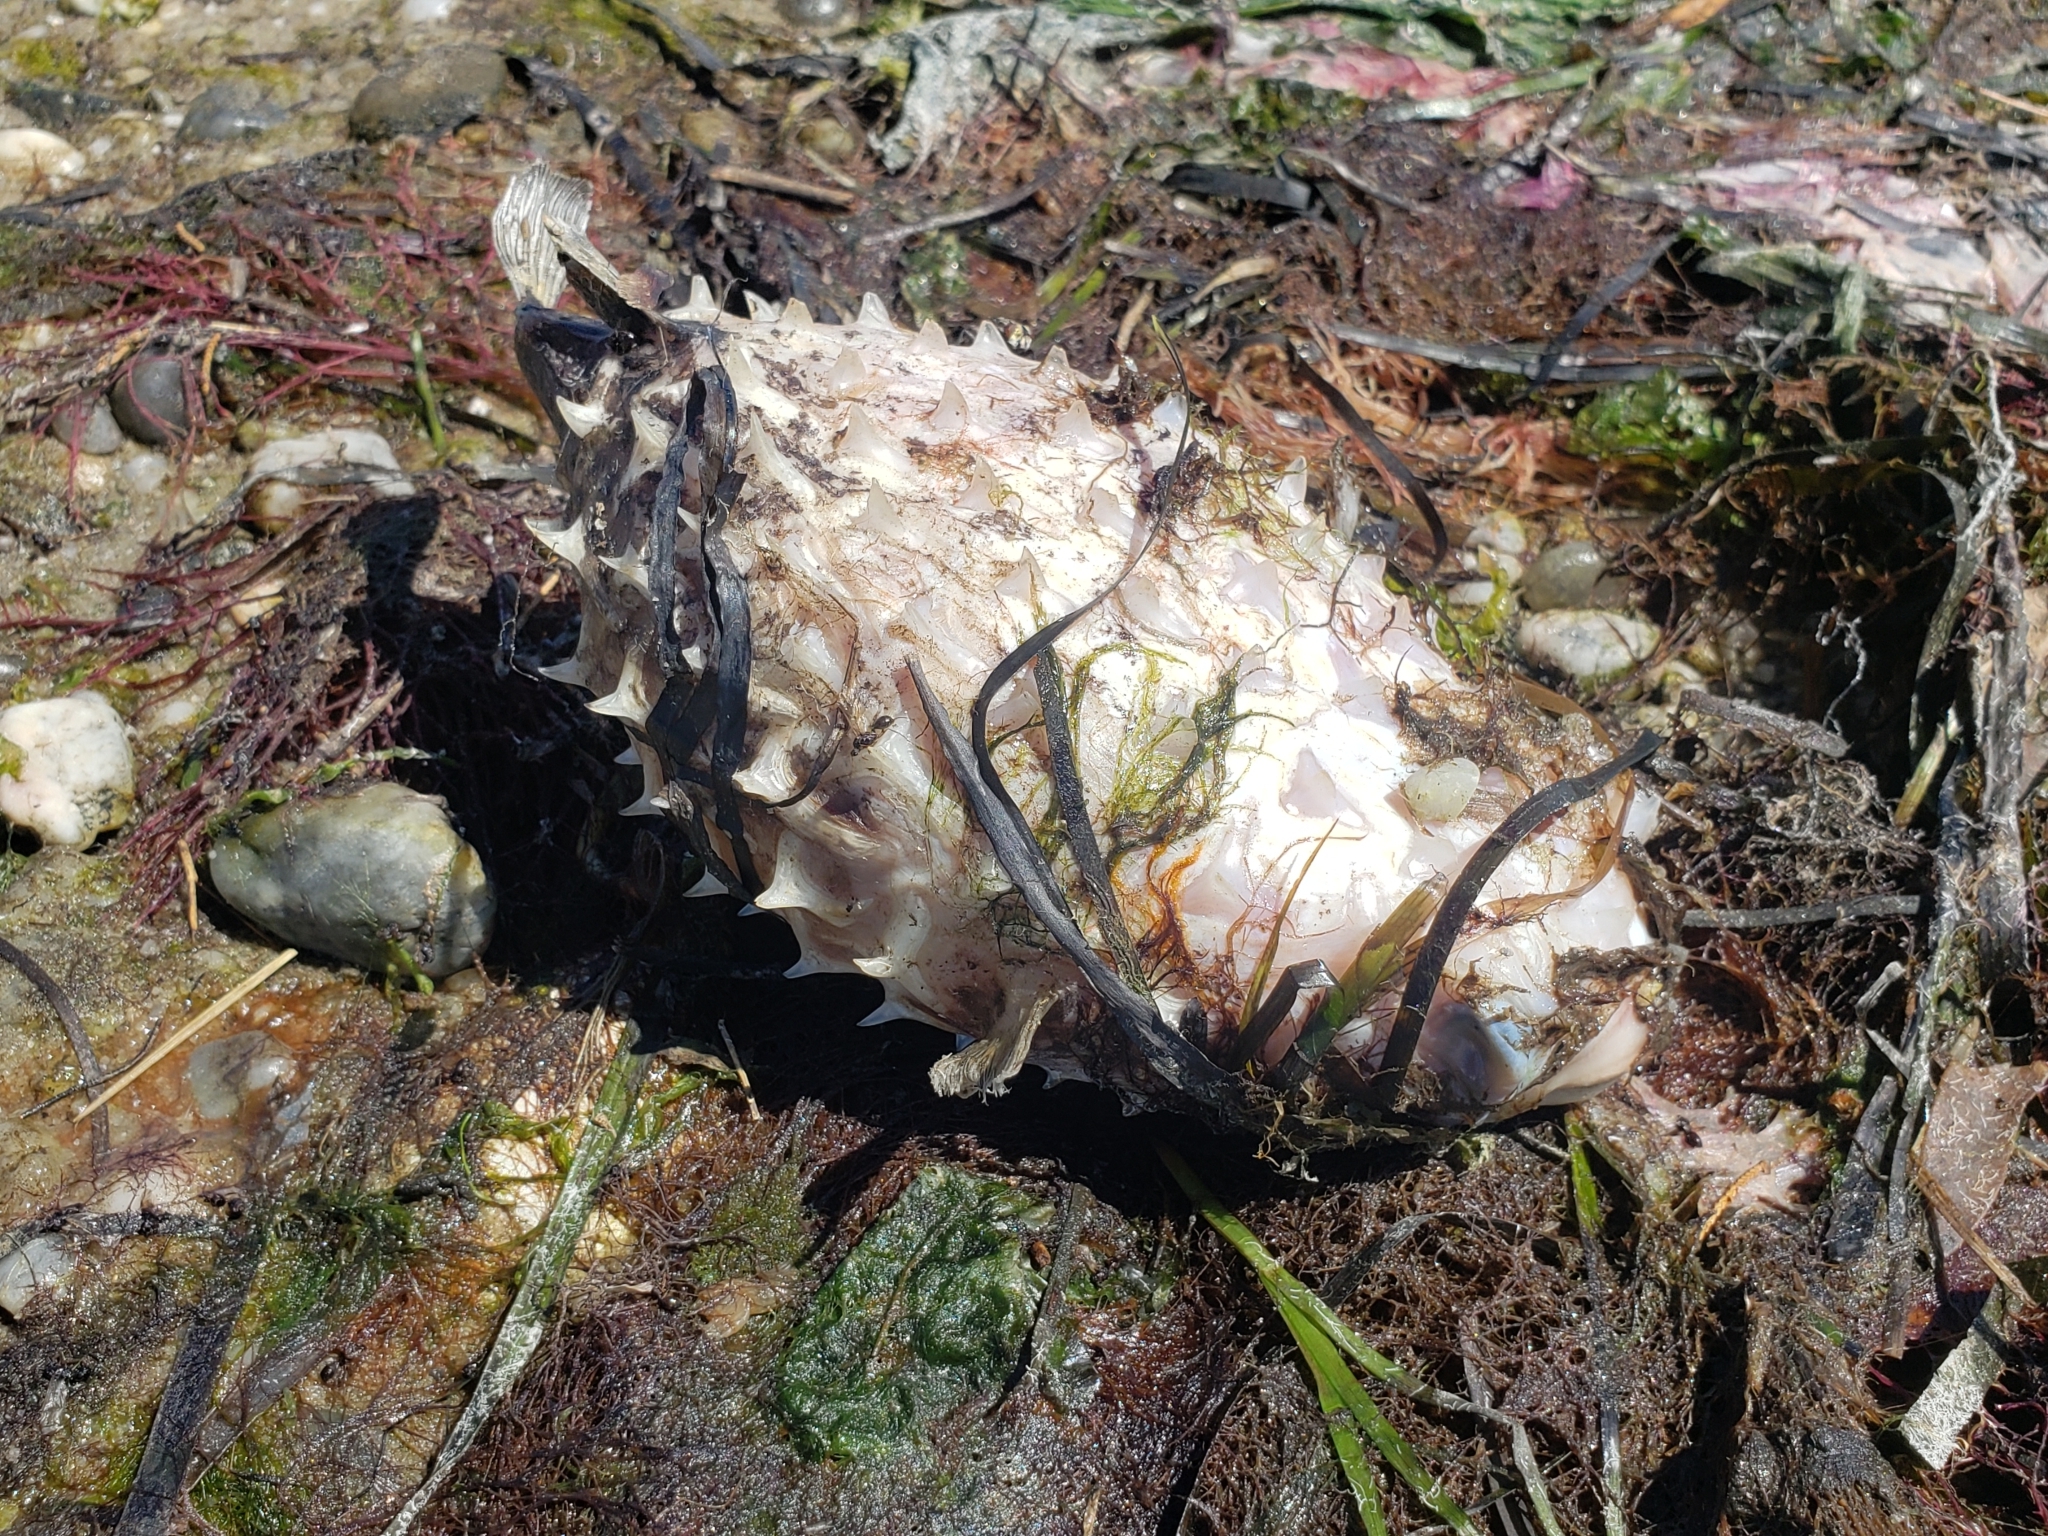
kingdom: Animalia
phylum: Chordata
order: Tetraodontiformes
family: Diodontidae
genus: Chilomycterus
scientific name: Chilomycterus schoepfii
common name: Striped burrfish
